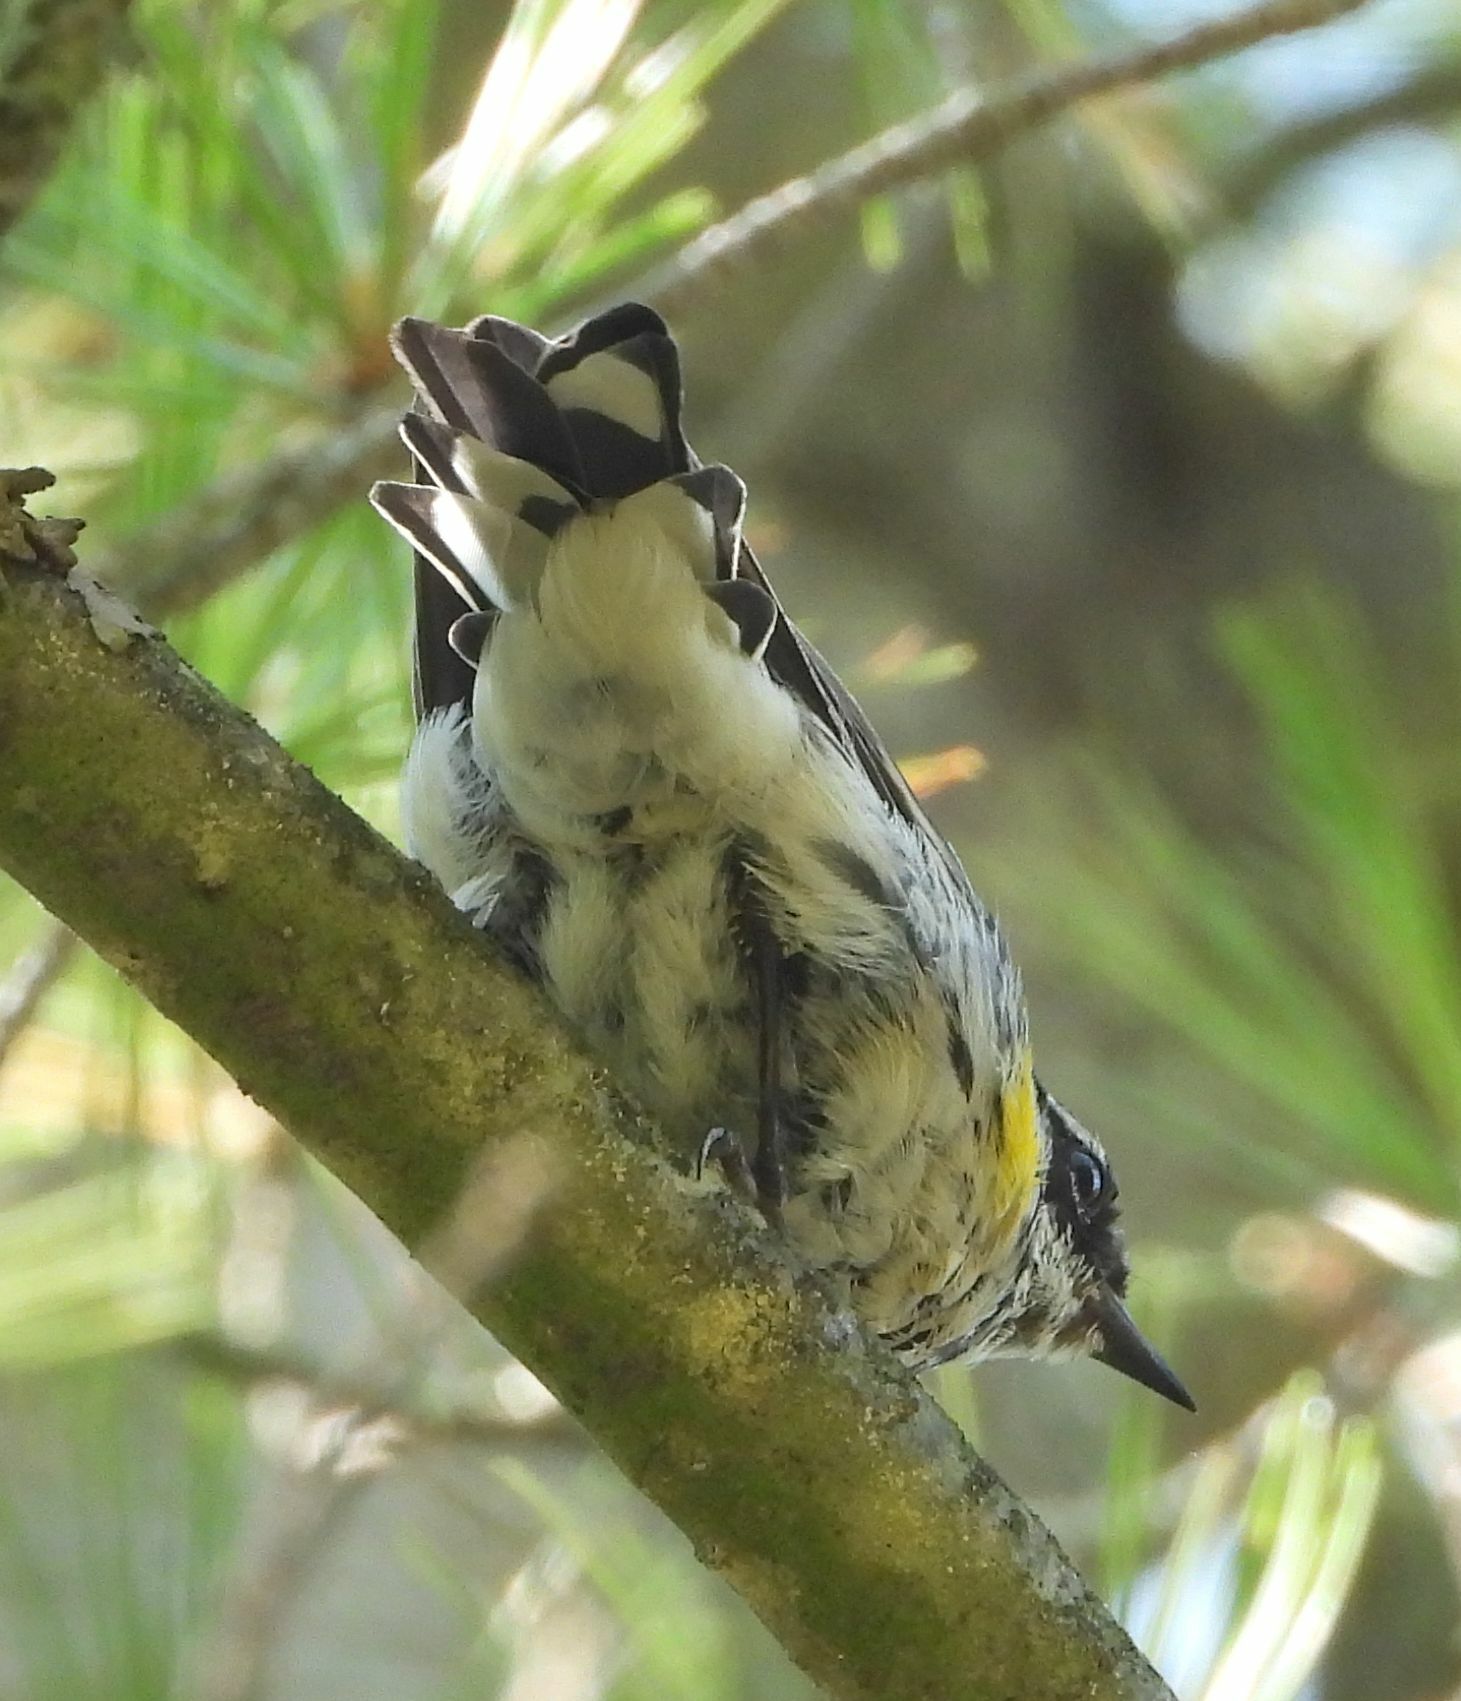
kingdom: Animalia
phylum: Chordata
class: Aves
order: Passeriformes
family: Parulidae
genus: Setophaga
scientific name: Setophaga coronata
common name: Myrtle warbler
